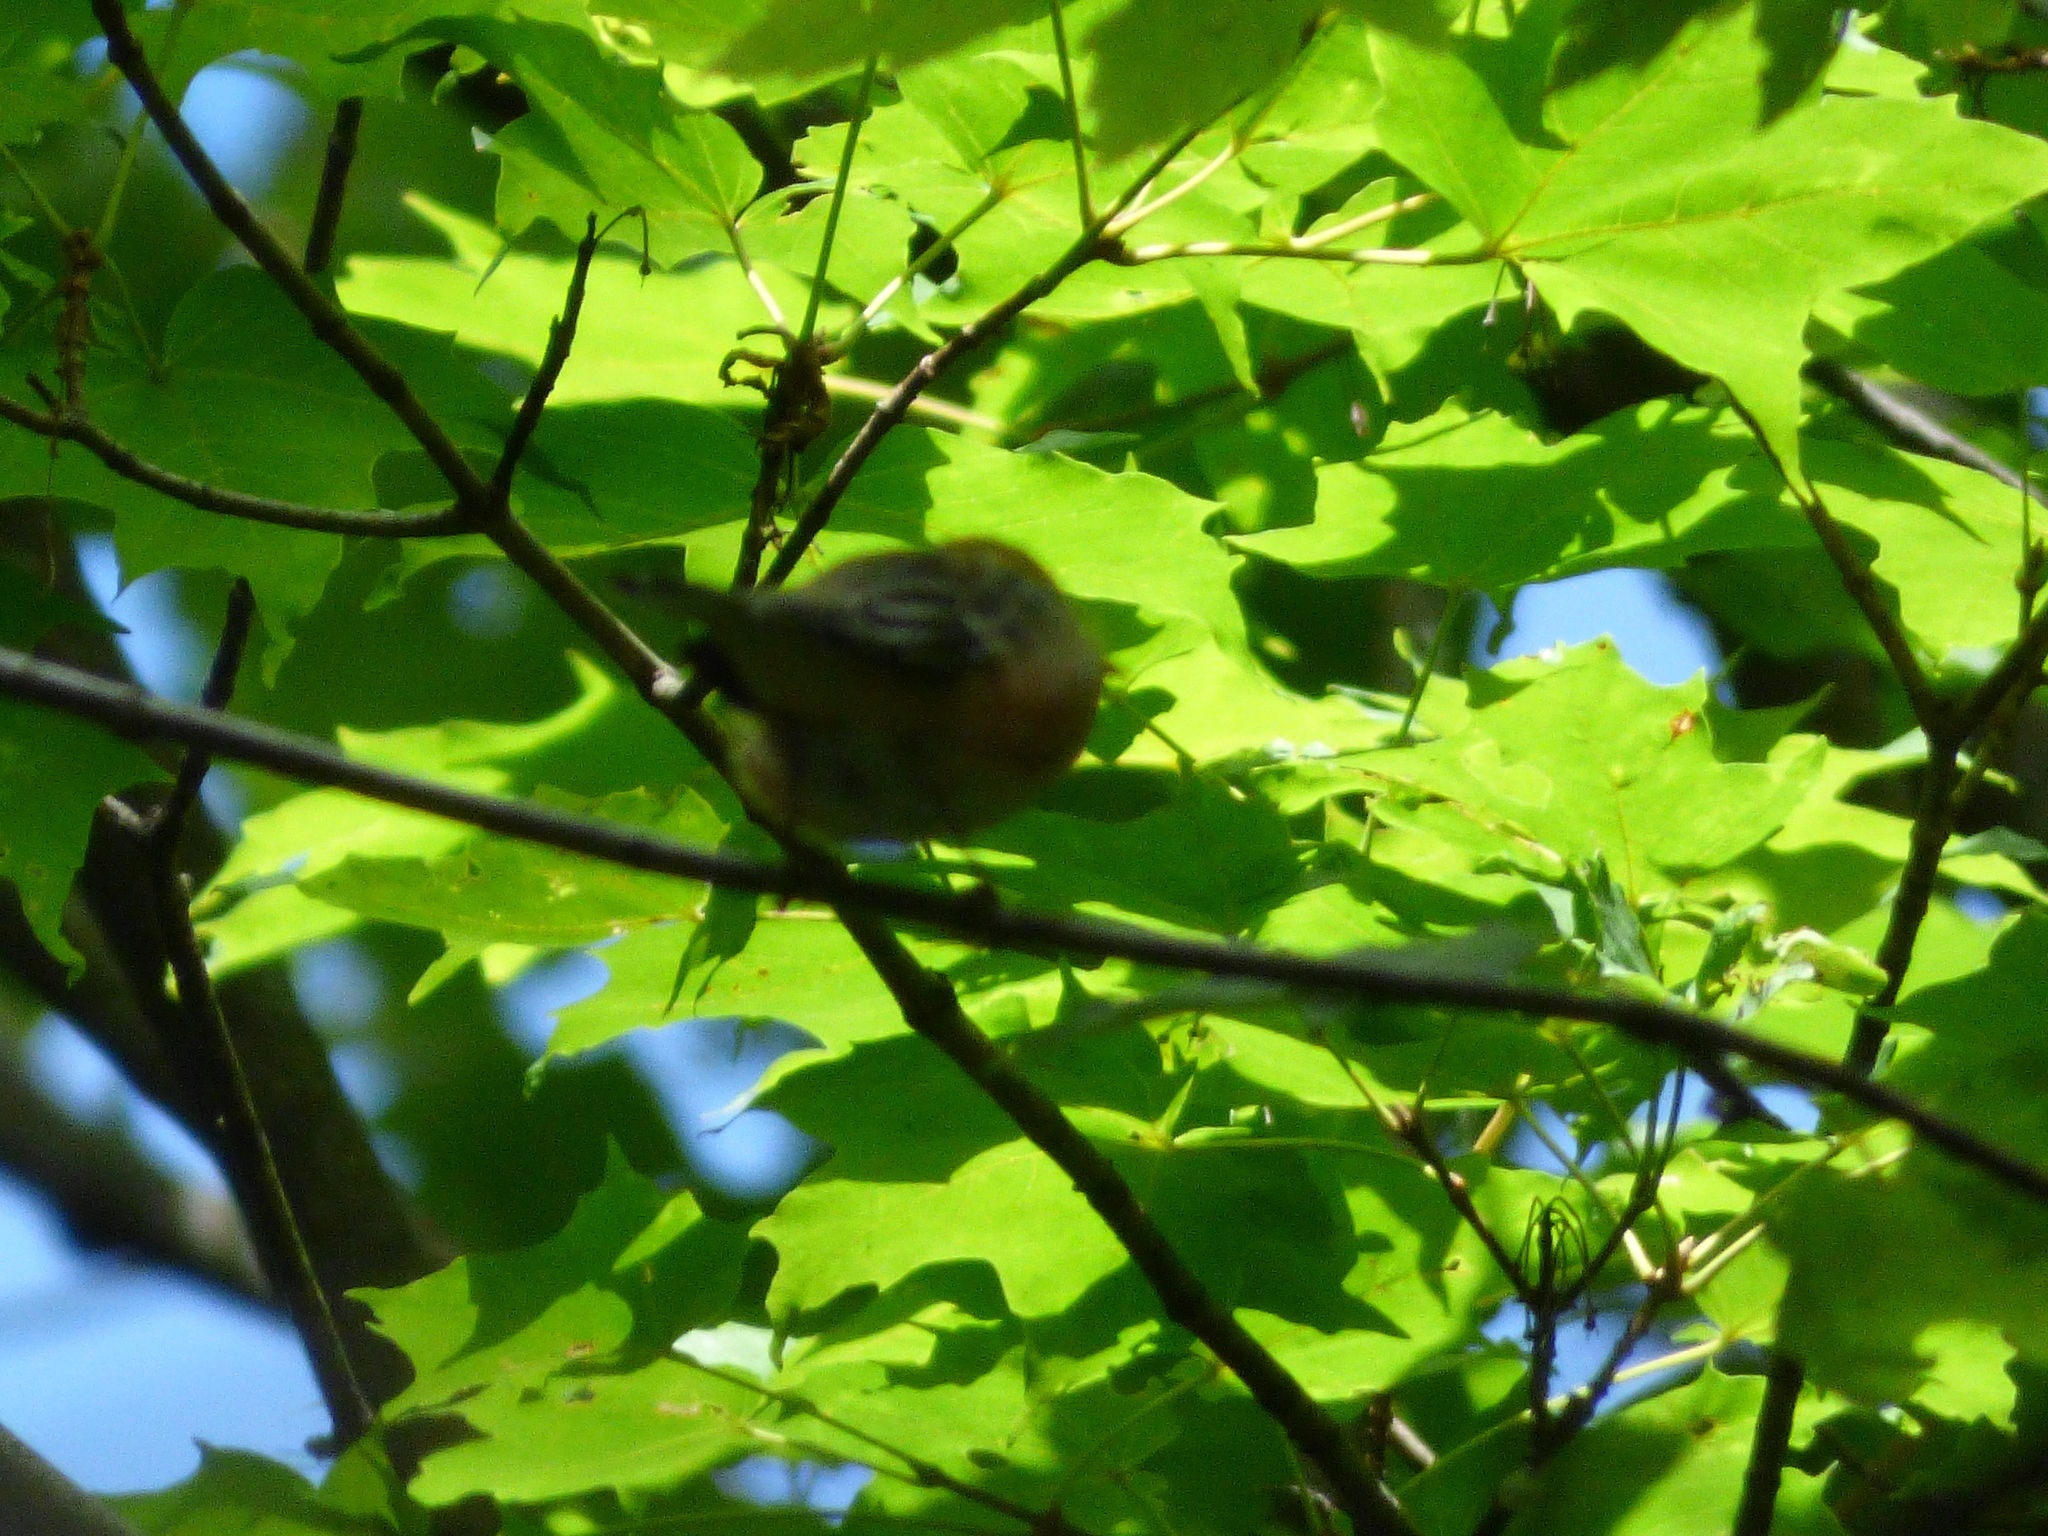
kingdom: Animalia
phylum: Chordata
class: Aves
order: Passeriformes
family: Parulidae
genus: Setophaga
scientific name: Setophaga castanea
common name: Bay-breasted warbler
